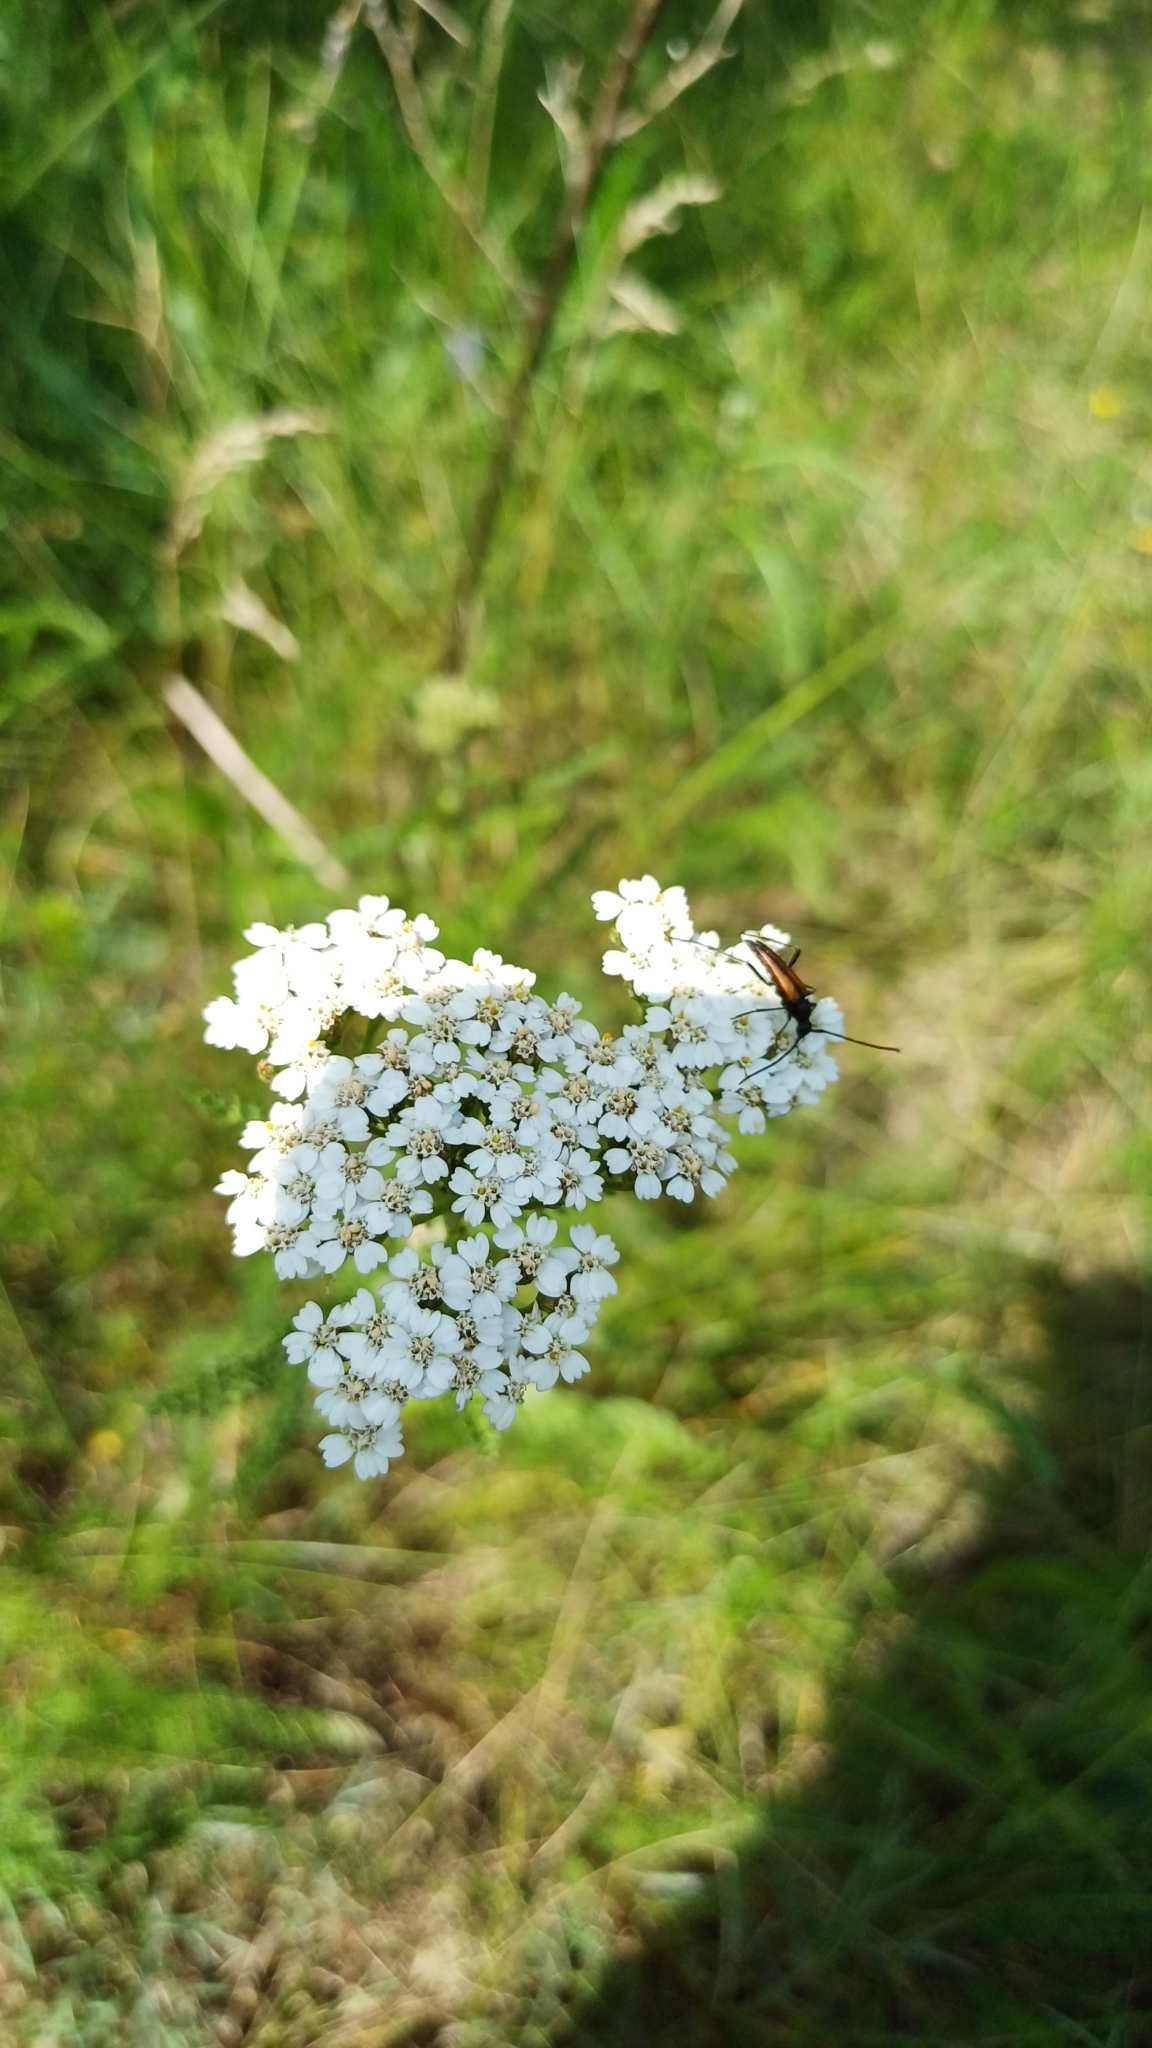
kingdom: Plantae
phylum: Tracheophyta
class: Magnoliopsida
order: Asterales
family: Asteraceae
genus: Achillea
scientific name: Achillea millefolium
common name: Yarrow
